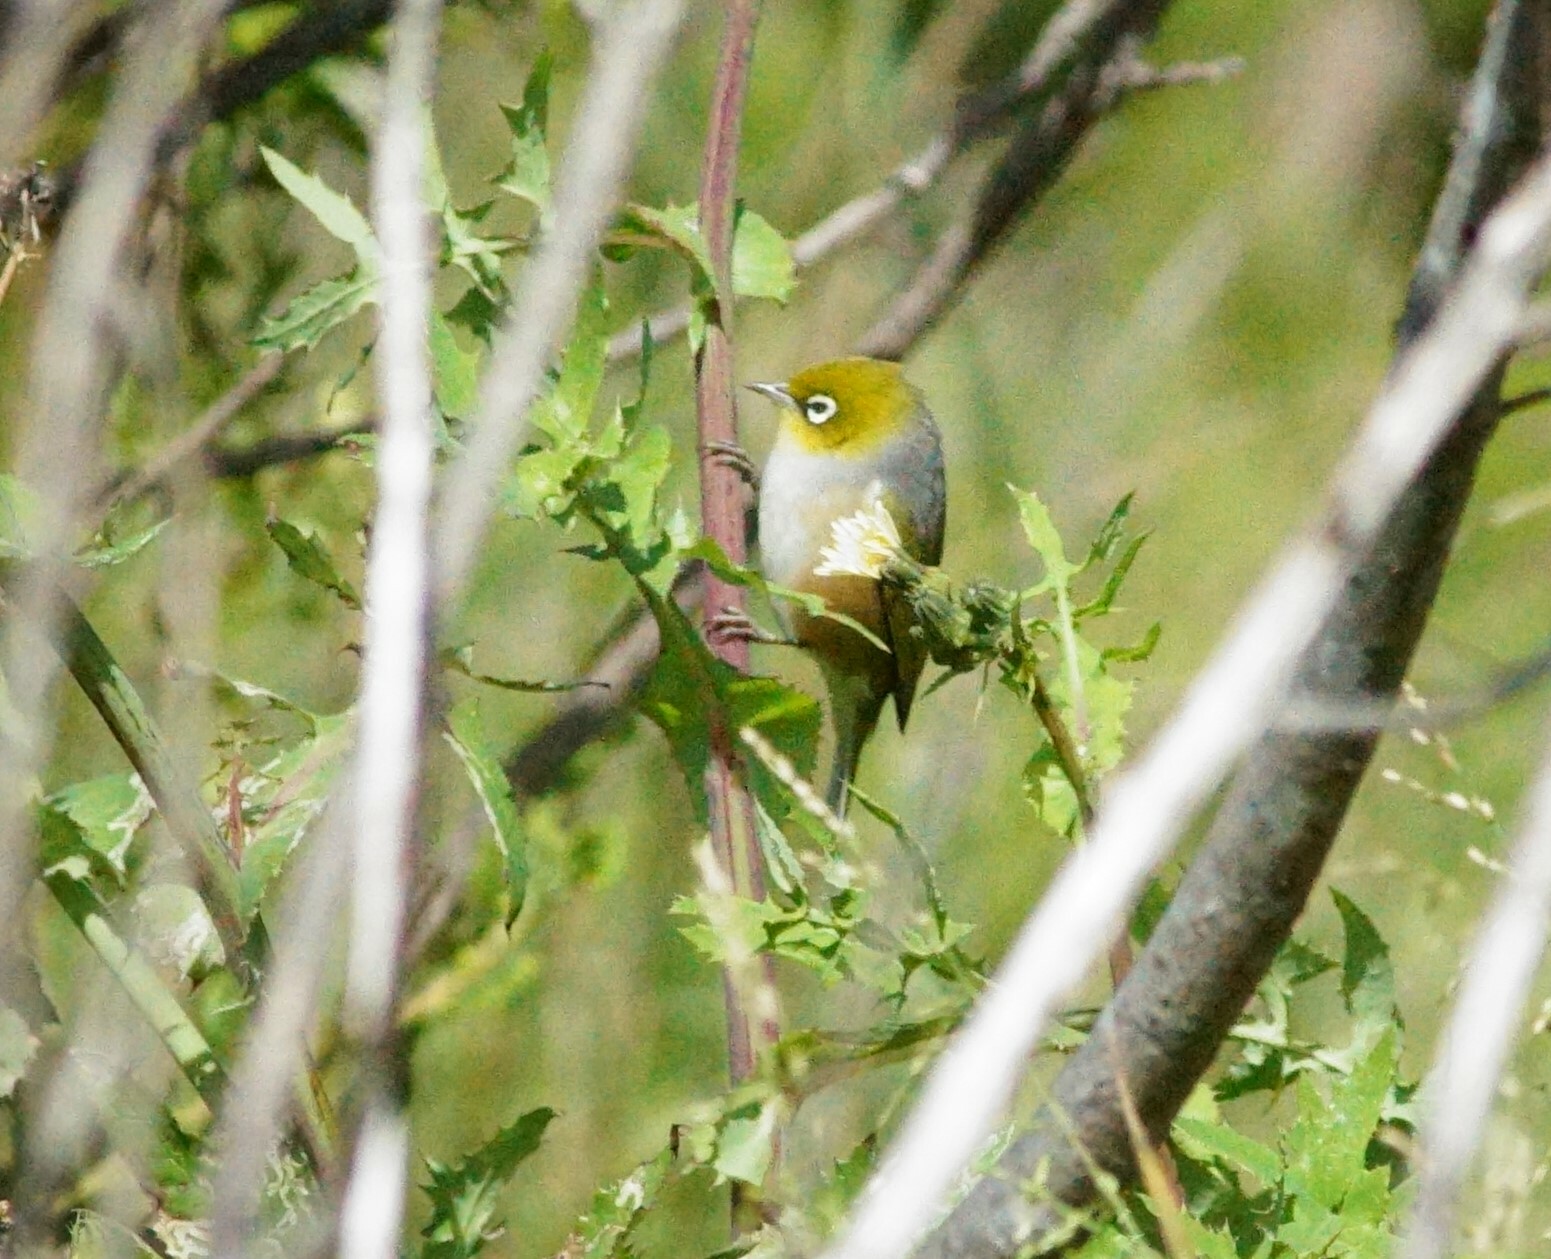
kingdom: Animalia
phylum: Chordata
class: Aves
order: Passeriformes
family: Zosteropidae
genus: Zosterops
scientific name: Zosterops lateralis
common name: Silvereye
